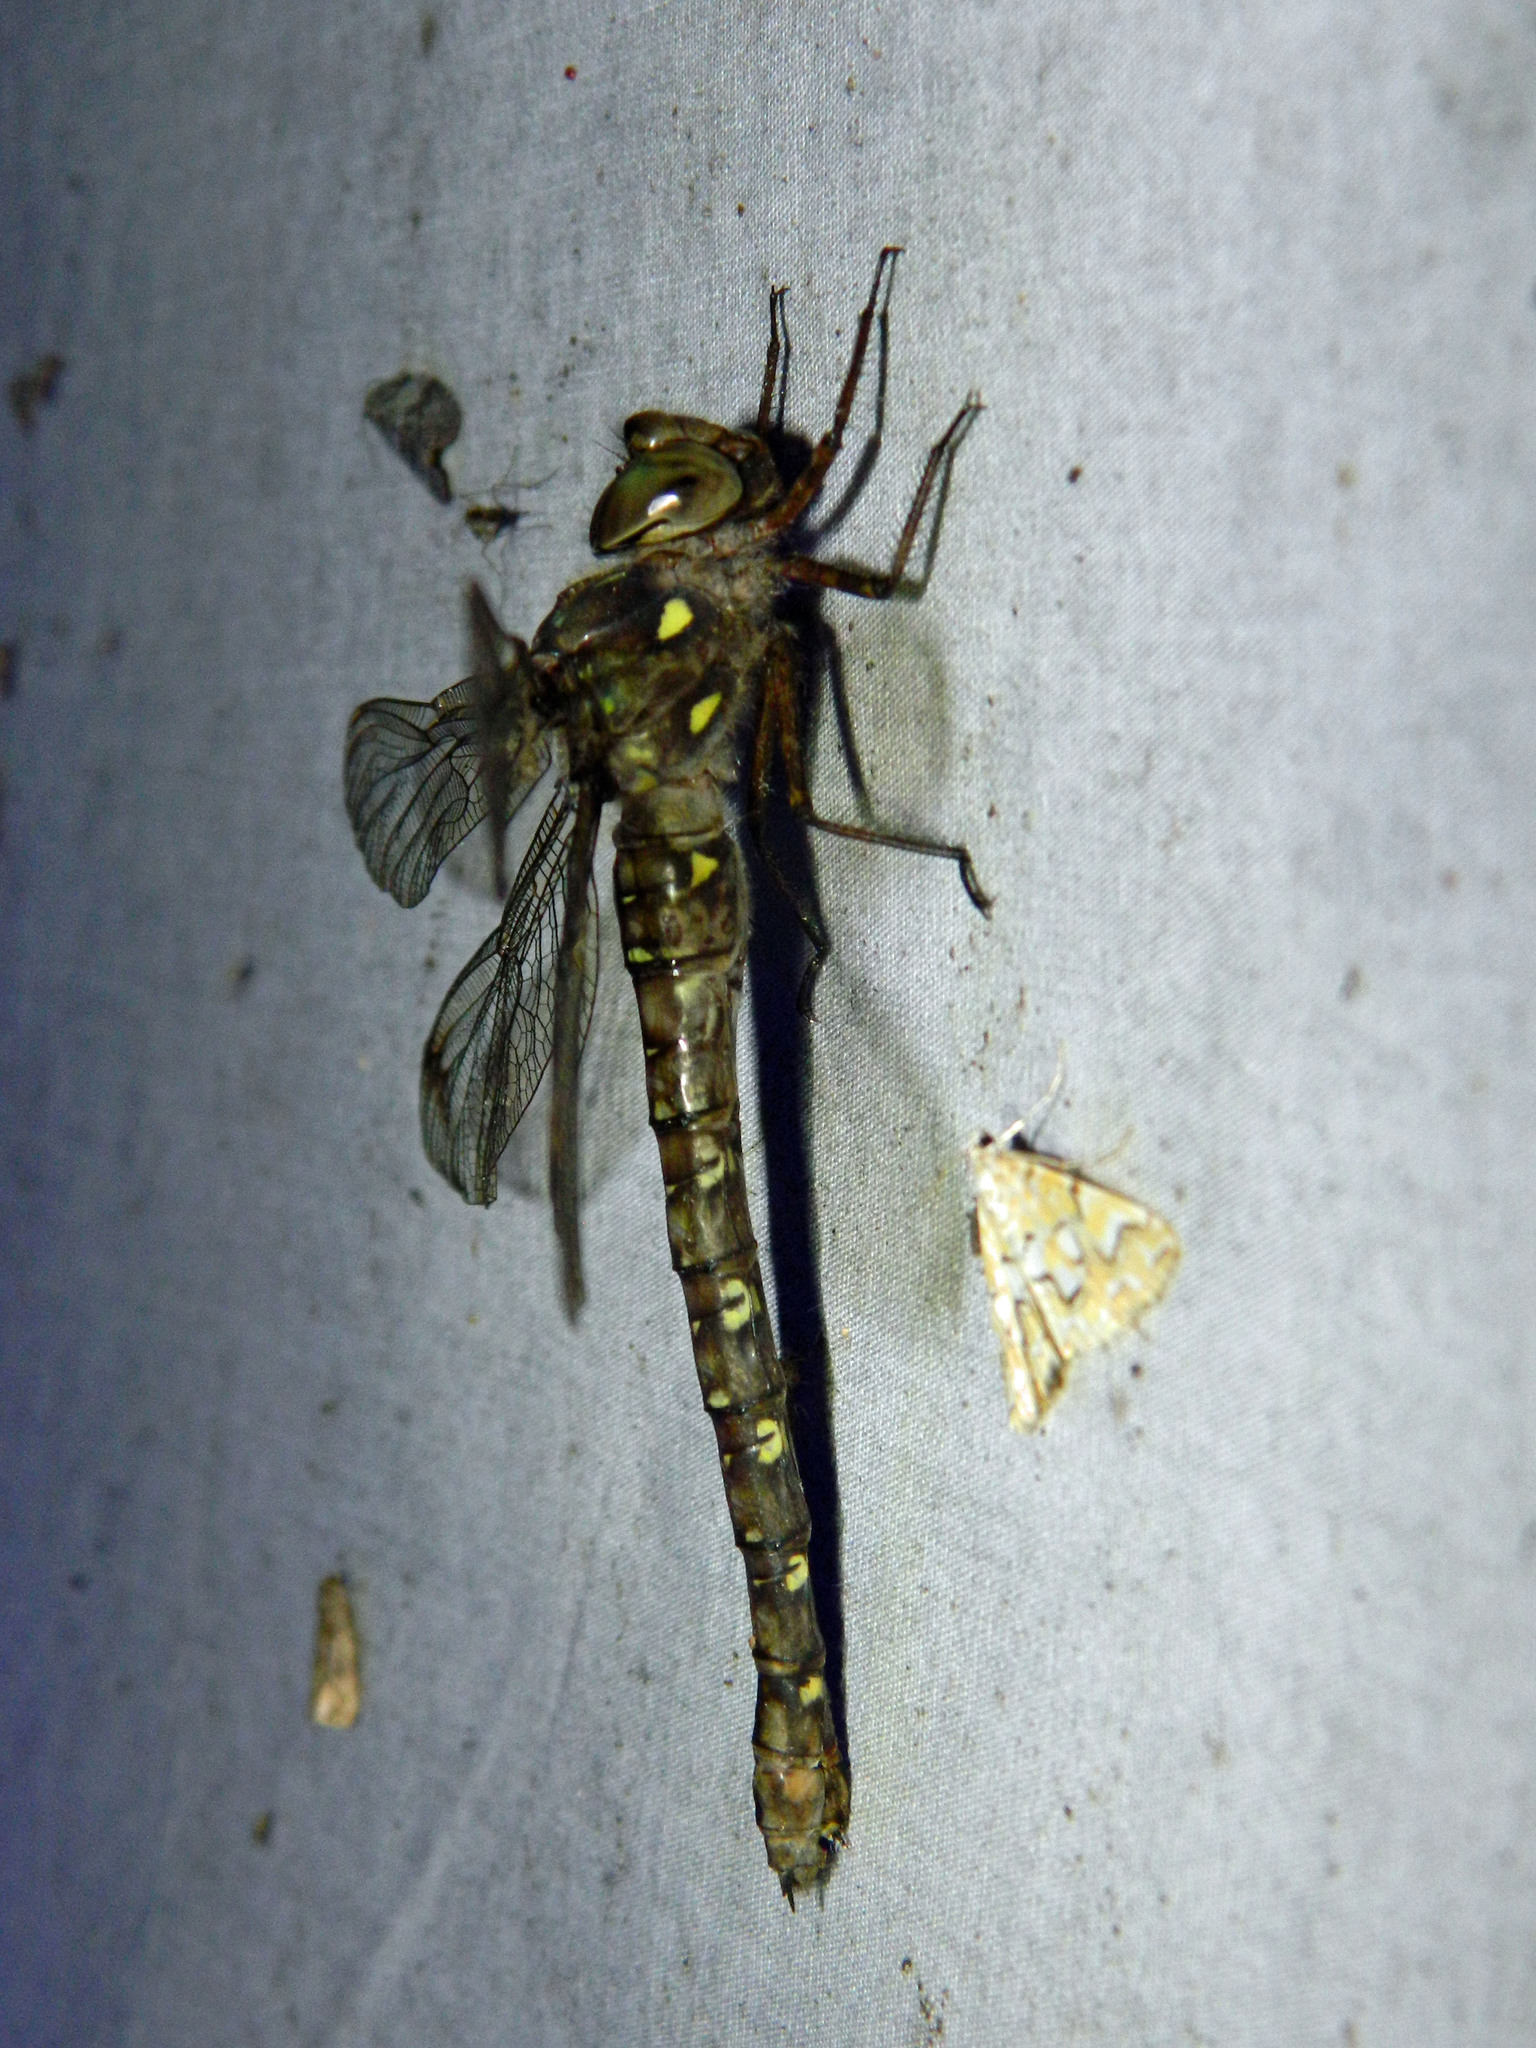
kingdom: Animalia
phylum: Arthropoda
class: Insecta
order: Odonata
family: Aeshnidae
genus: Boyeria
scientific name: Boyeria grafiana
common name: Ocellated darner
